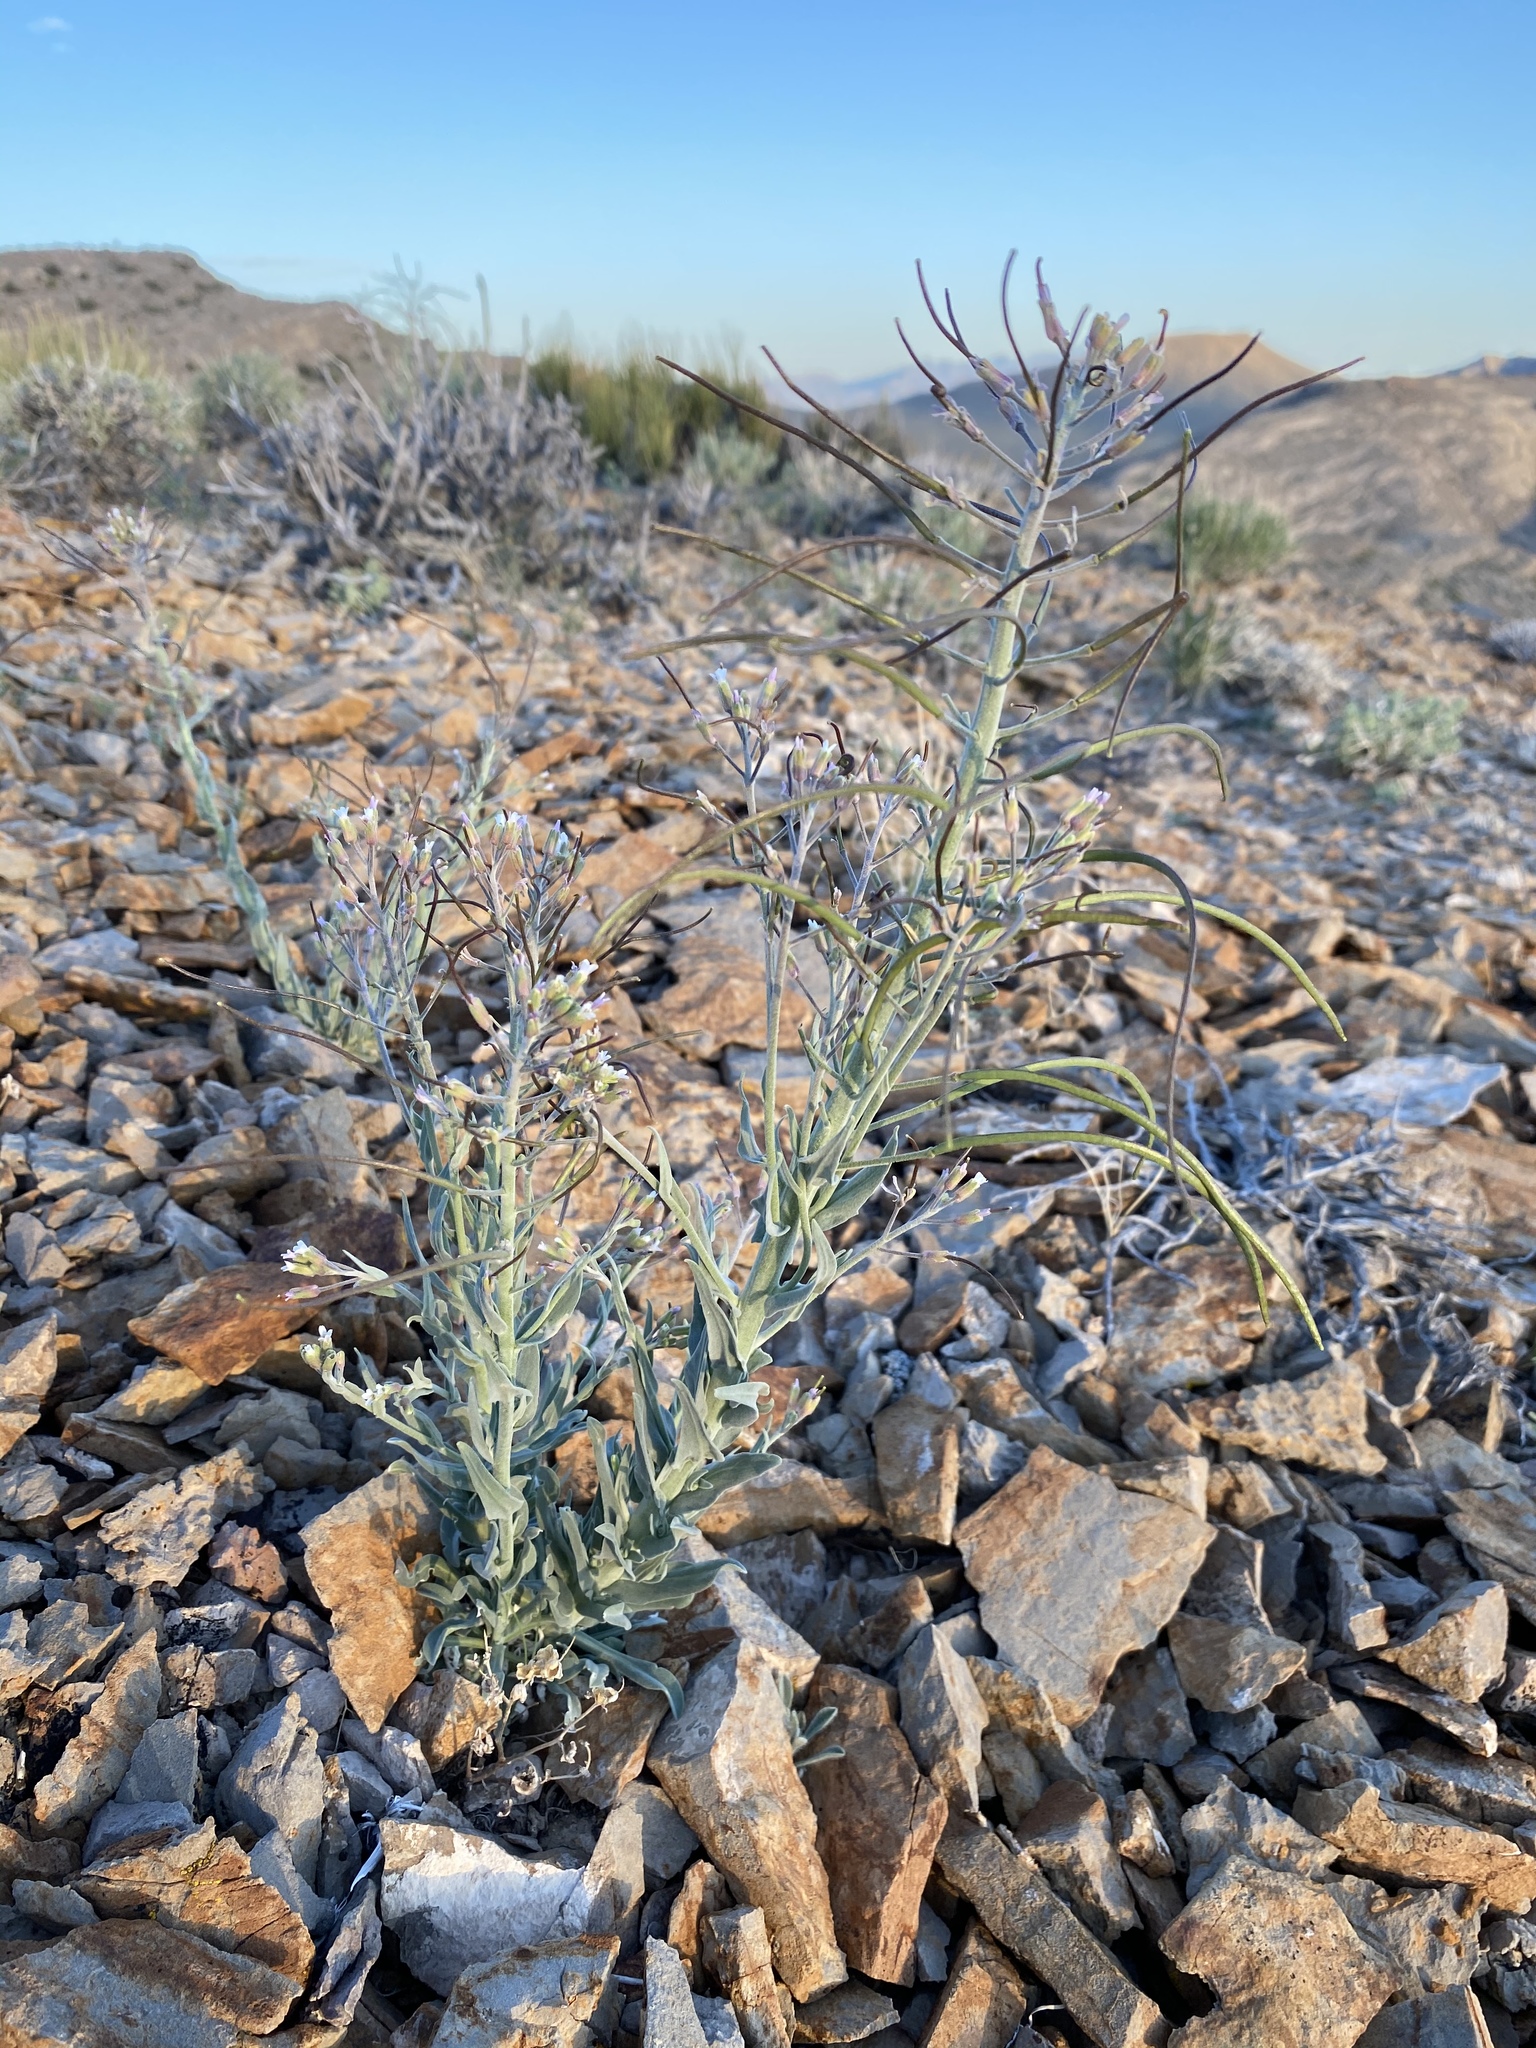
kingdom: Plantae
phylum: Tracheophyta
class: Magnoliopsida
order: Brassicales
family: Brassicaceae
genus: Boechera
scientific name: Boechera shockleyi
